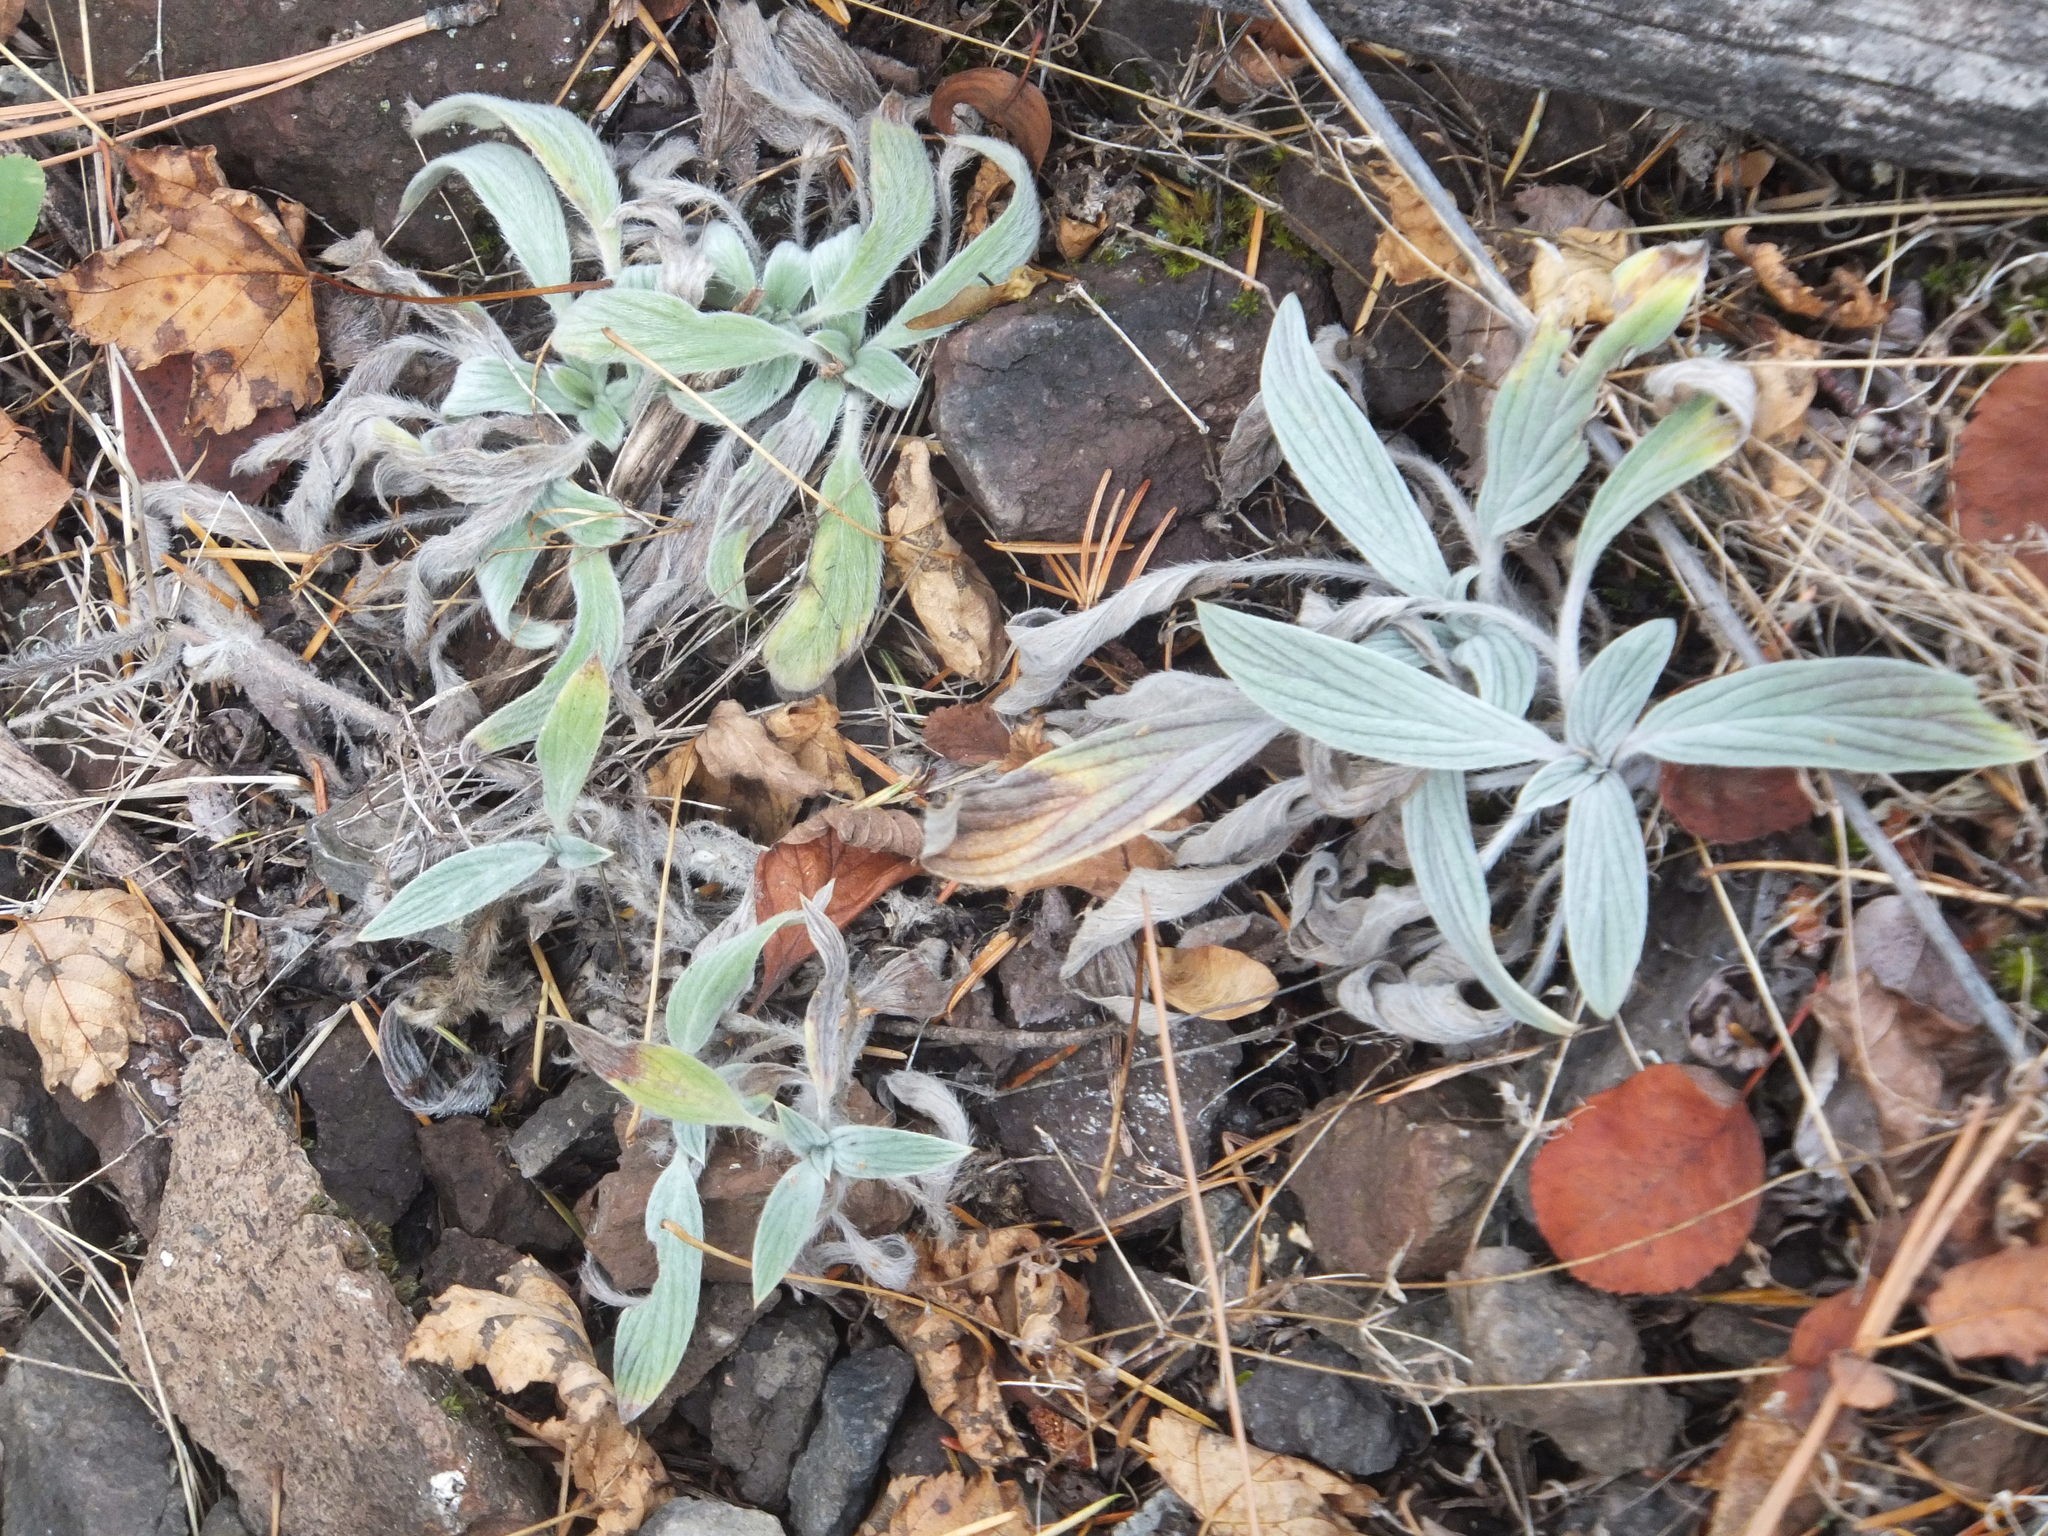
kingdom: Plantae
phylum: Tracheophyta
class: Magnoliopsida
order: Boraginales
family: Hydrophyllaceae
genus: Phacelia
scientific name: Phacelia hastata
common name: Silver-leaved phacelia
